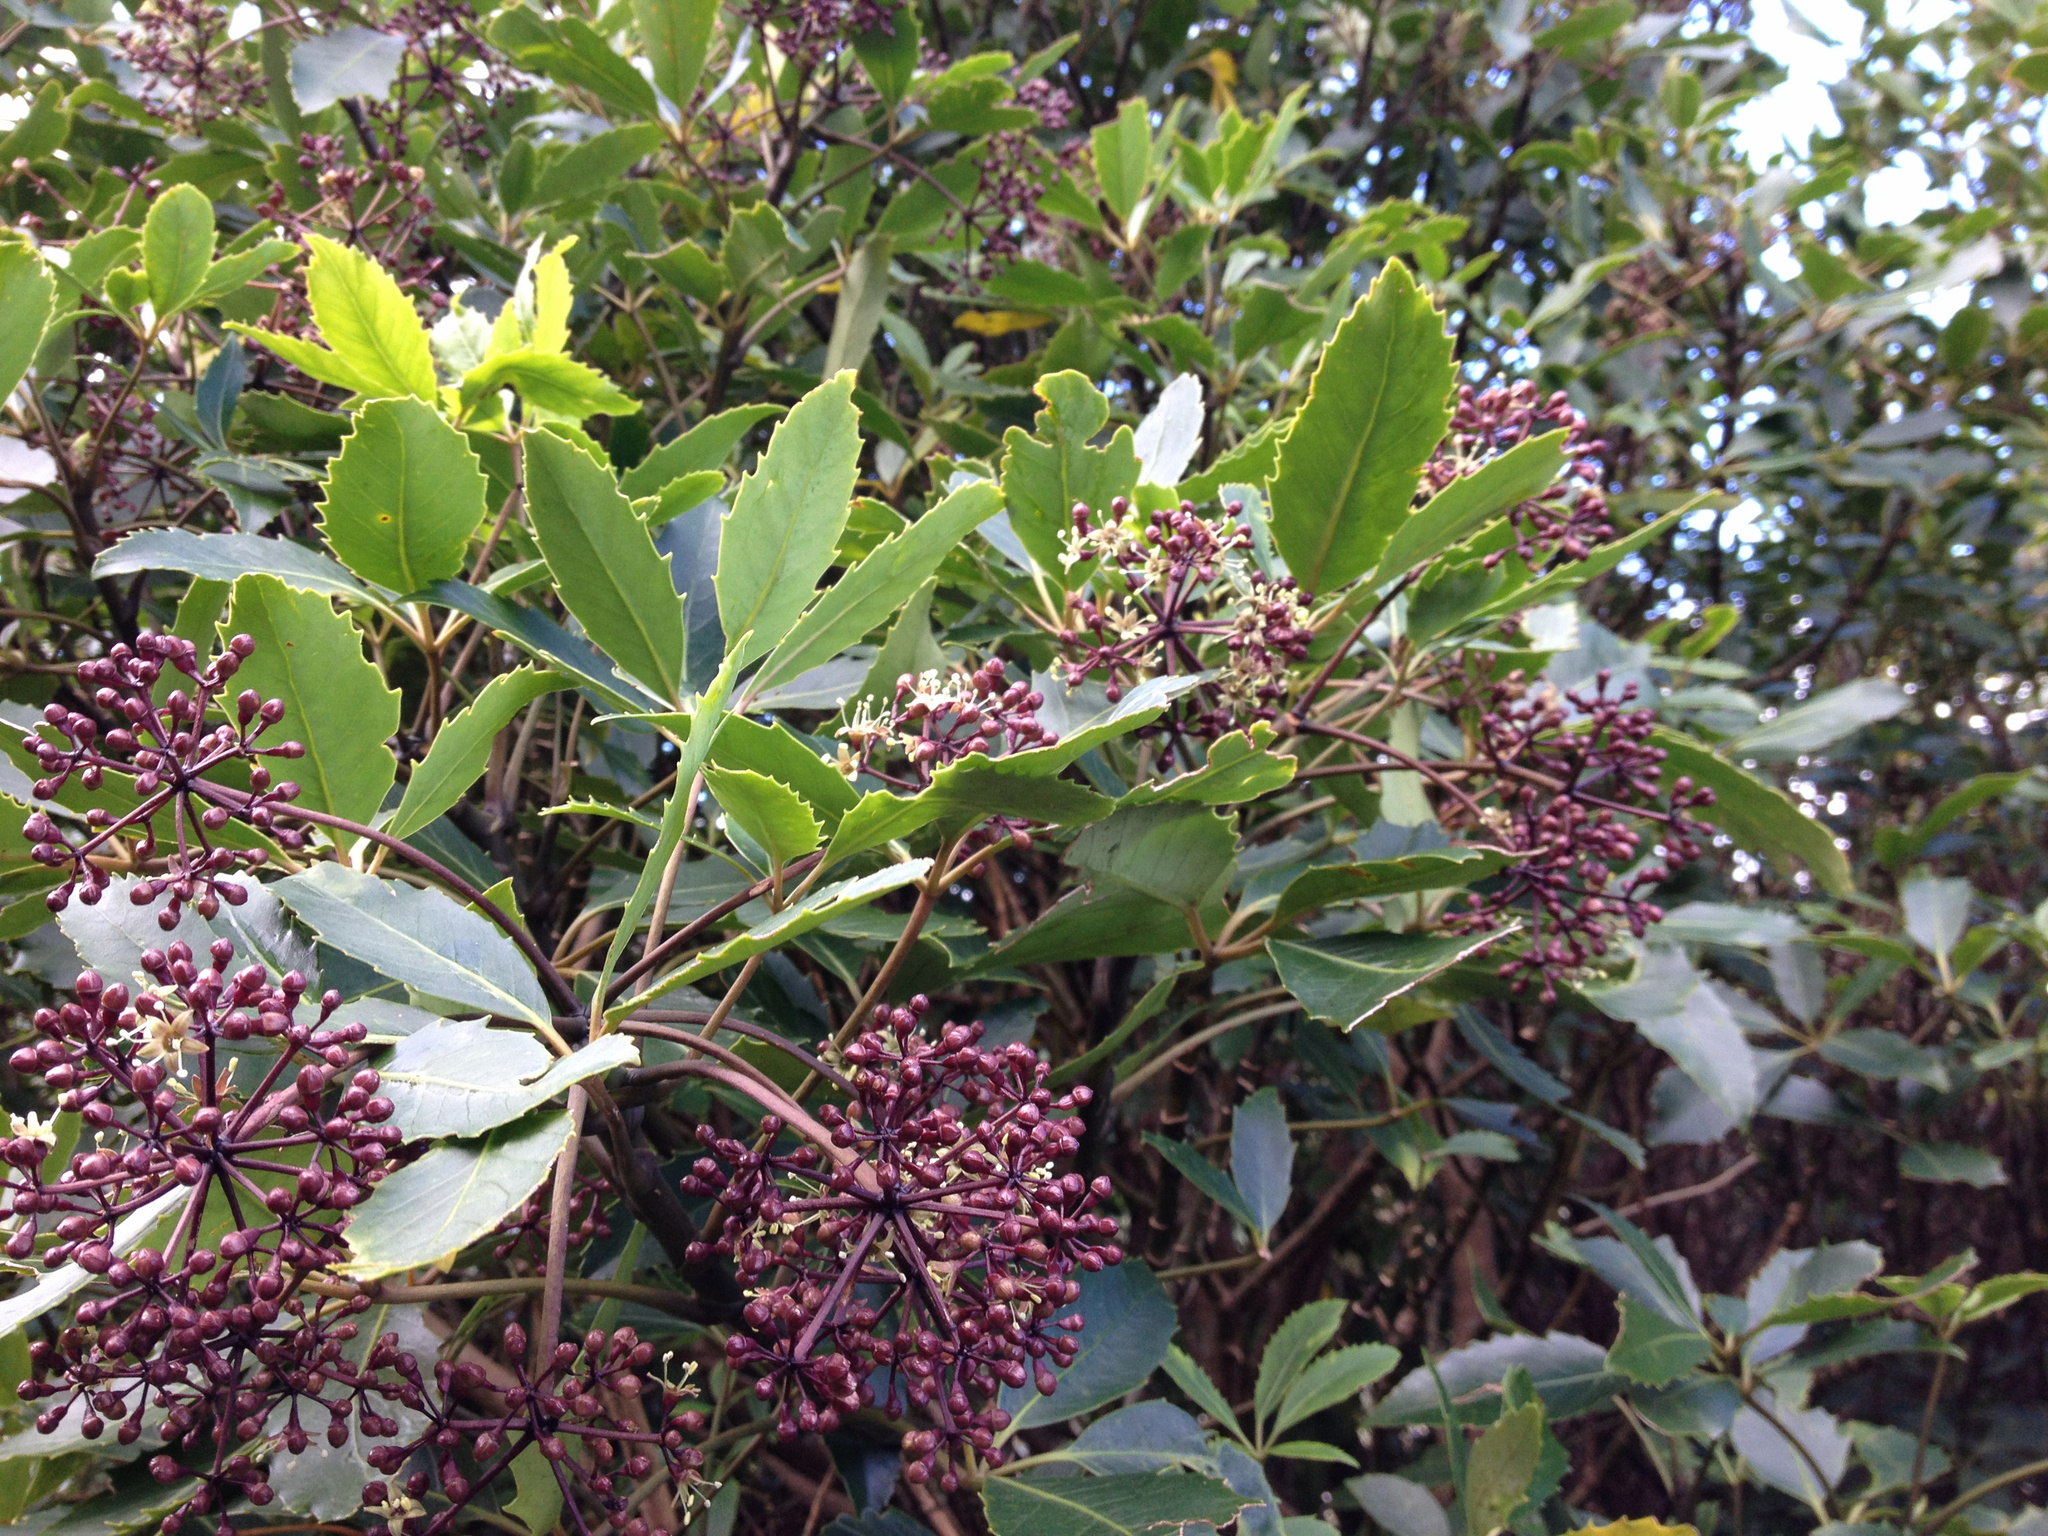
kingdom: Plantae
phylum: Tracheophyta
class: Magnoliopsida
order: Apiales
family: Araliaceae
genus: Neopanax
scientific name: Neopanax arboreus
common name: Five-fingers
